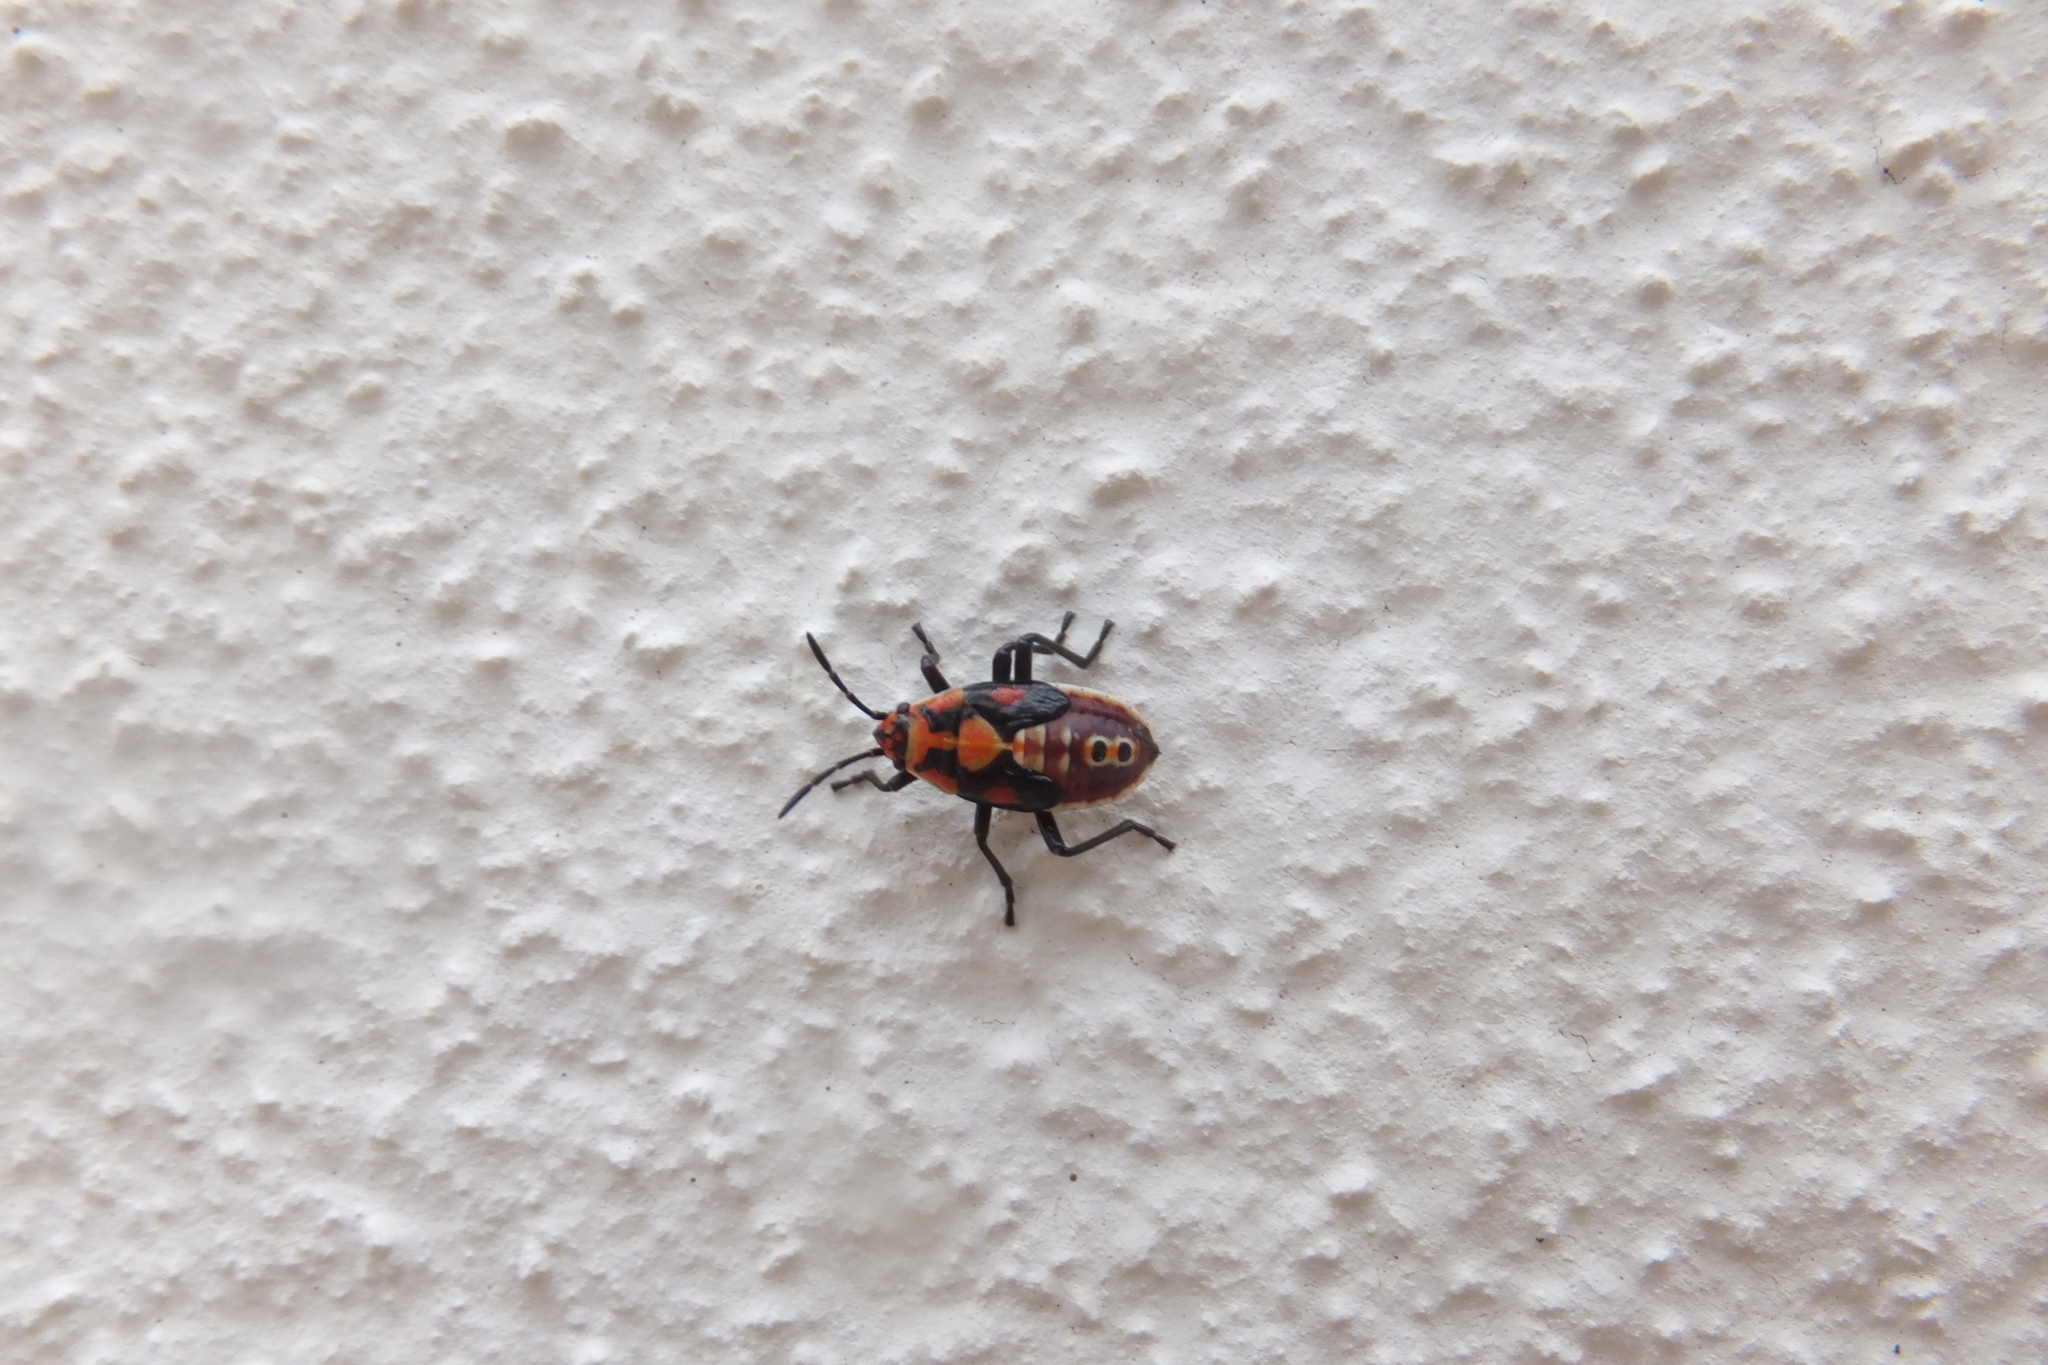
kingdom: Animalia
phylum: Arthropoda
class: Insecta
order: Hemiptera
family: Lygaeidae
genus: Spilostethus
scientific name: Spilostethus pandurus
